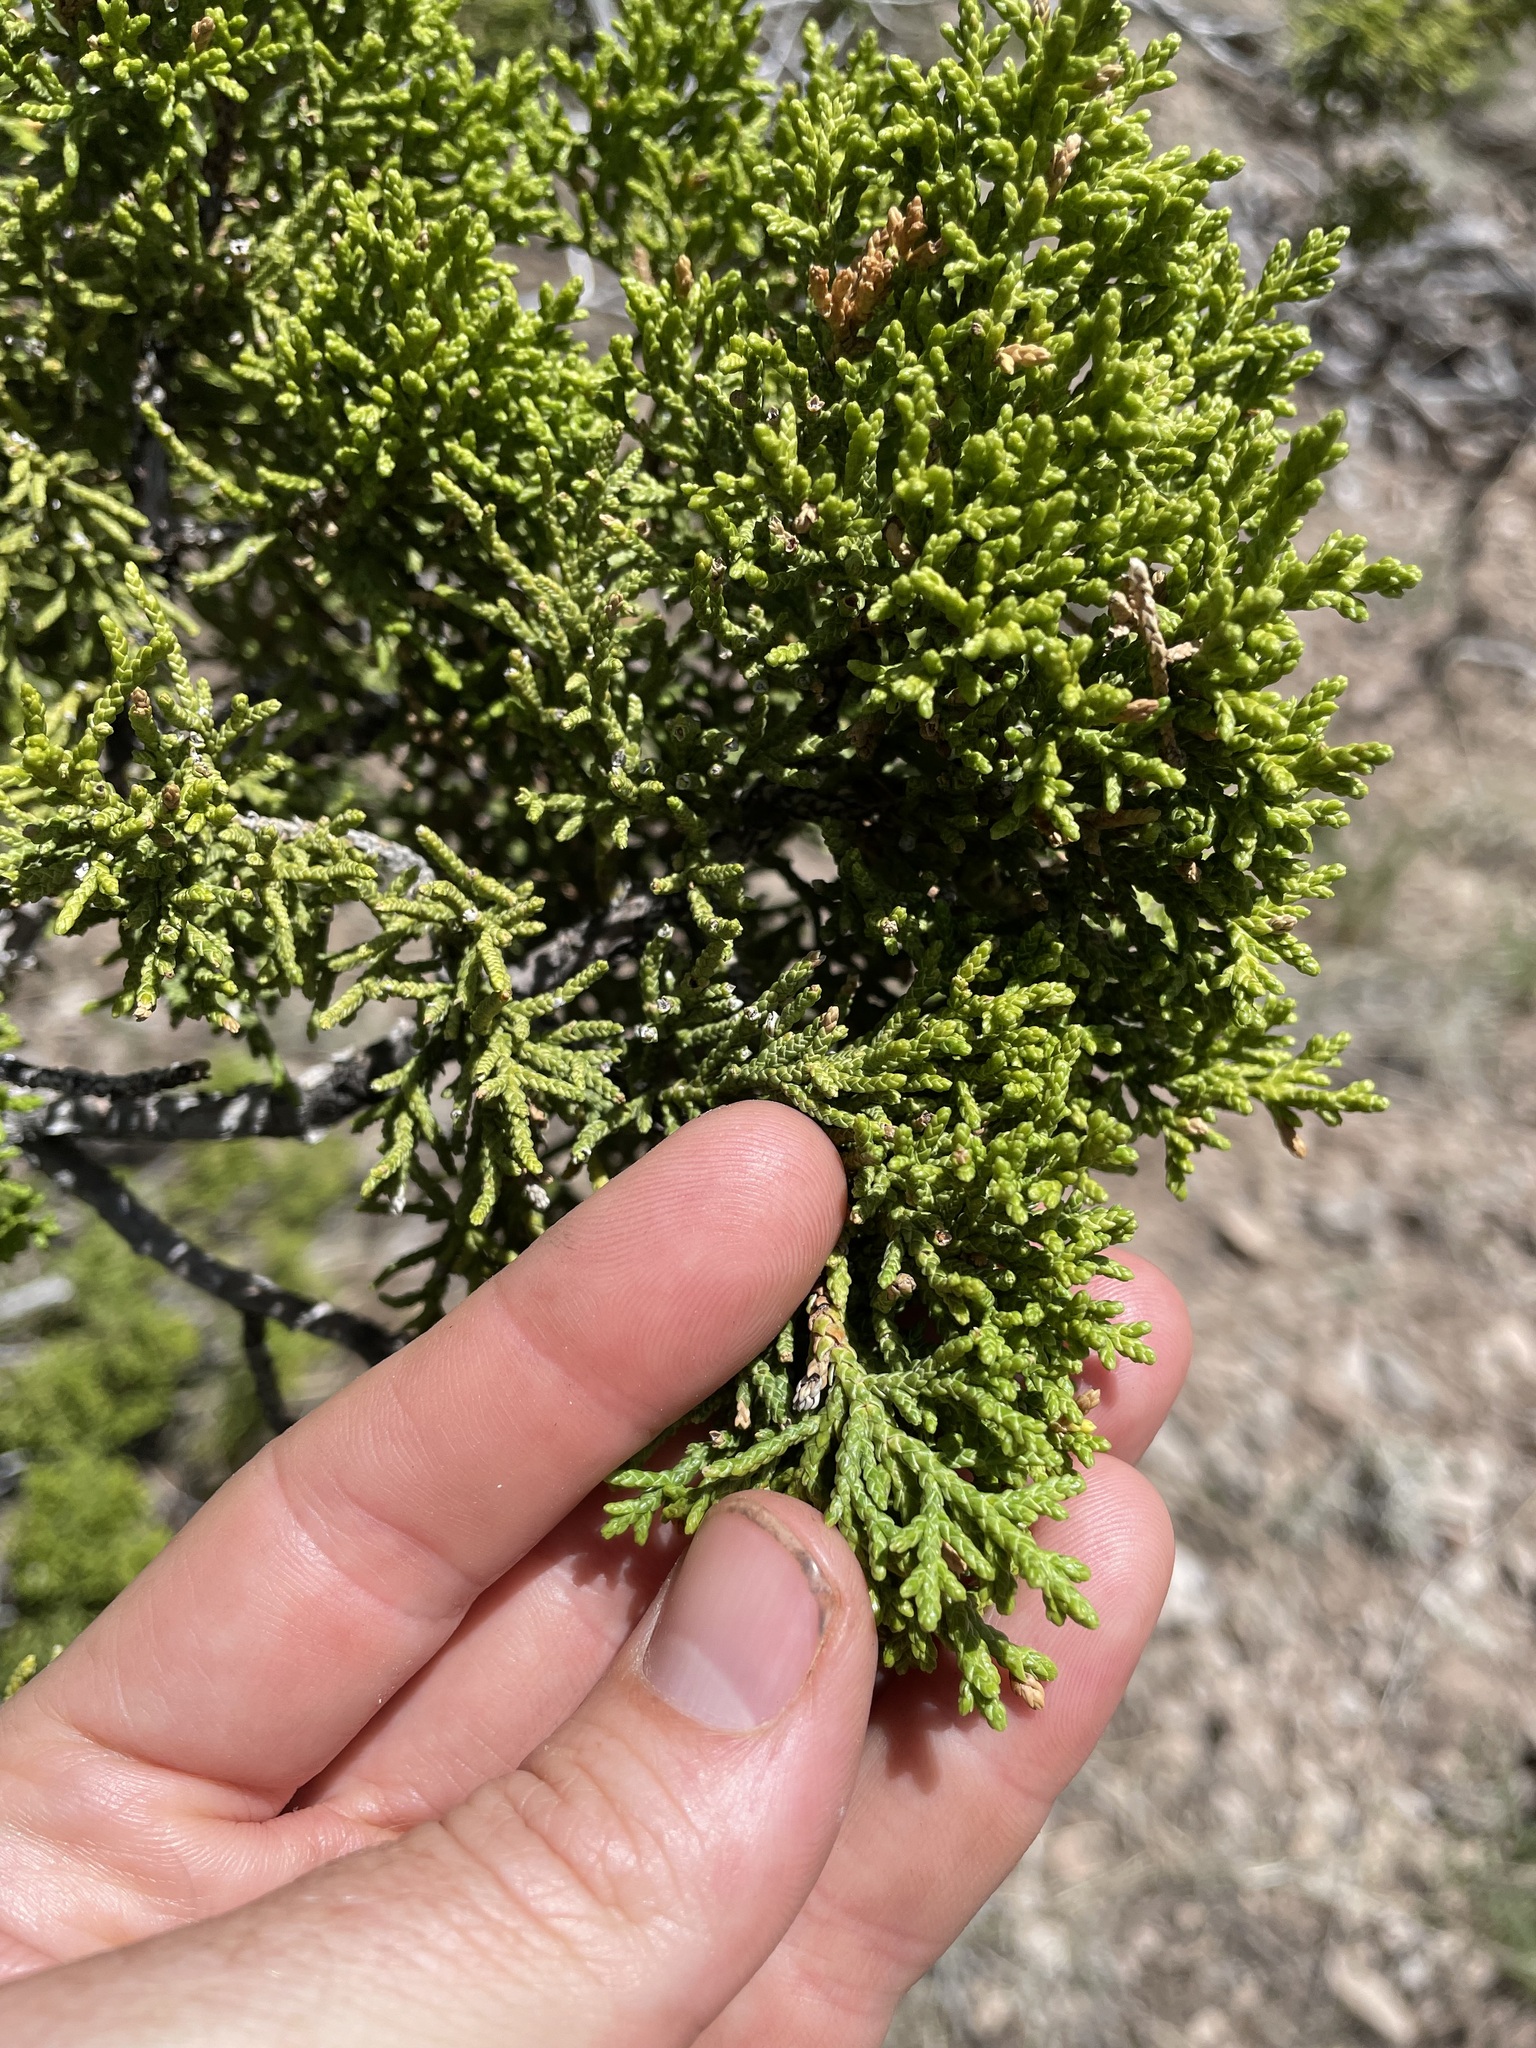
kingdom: Plantae
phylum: Tracheophyta
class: Pinopsida
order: Pinales
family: Cupressaceae
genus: Juniperus
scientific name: Juniperus monosperma
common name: One-seed juniper
